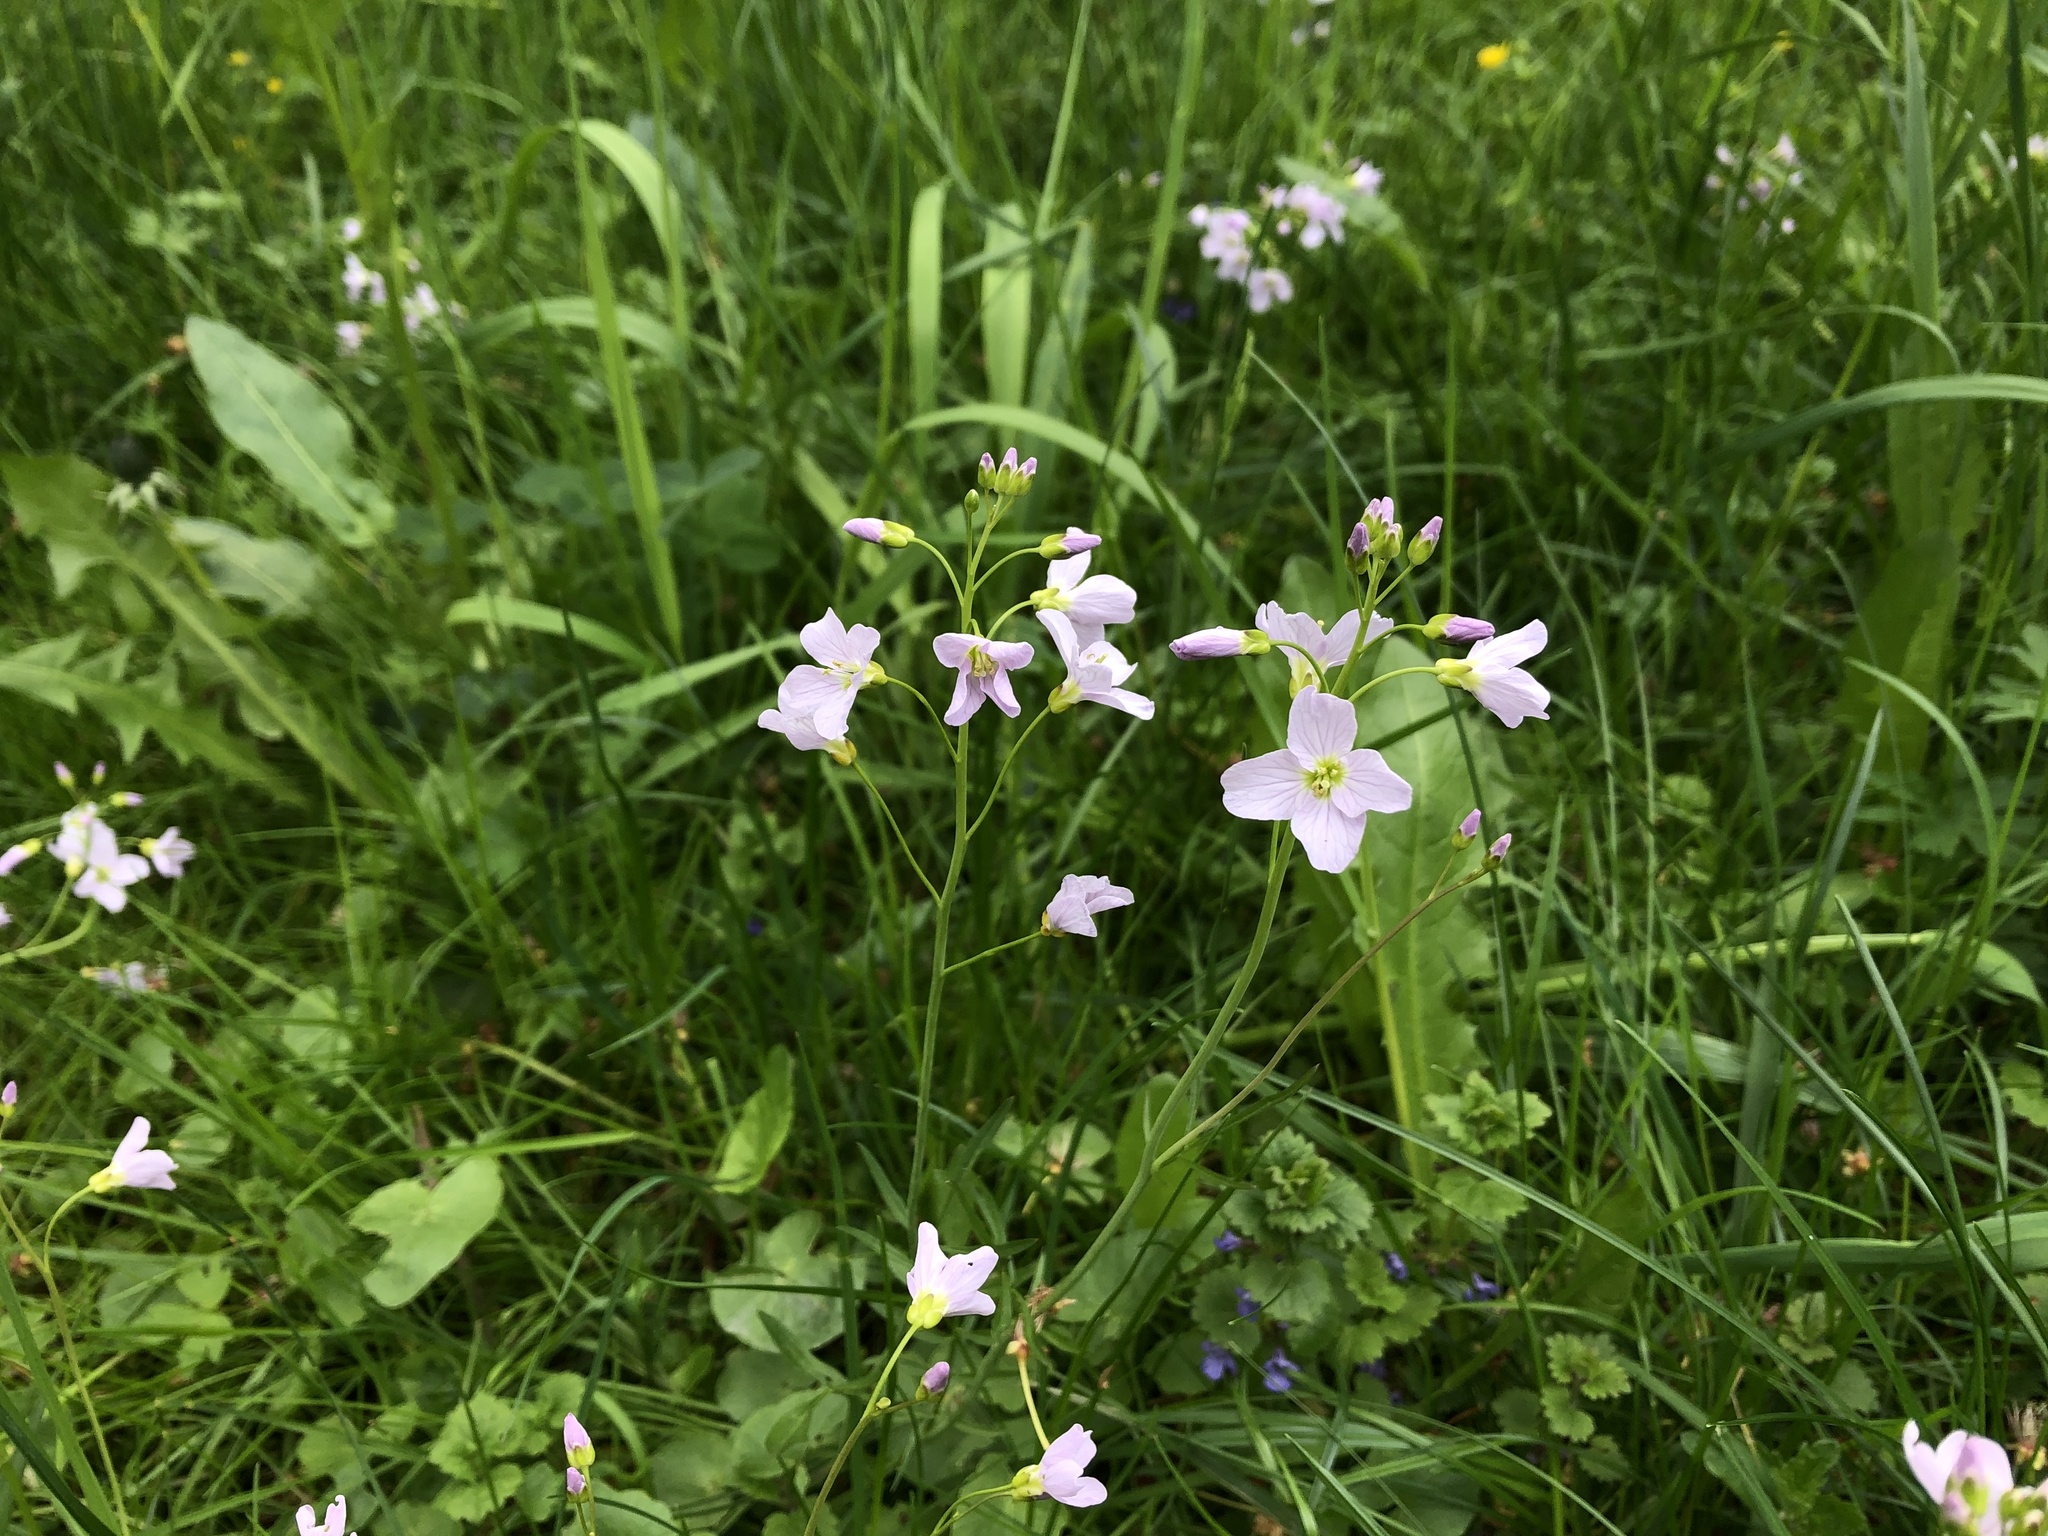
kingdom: Plantae
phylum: Tracheophyta
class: Magnoliopsida
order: Brassicales
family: Brassicaceae
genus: Cardamine
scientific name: Cardamine pratensis
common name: Cuckoo flower
